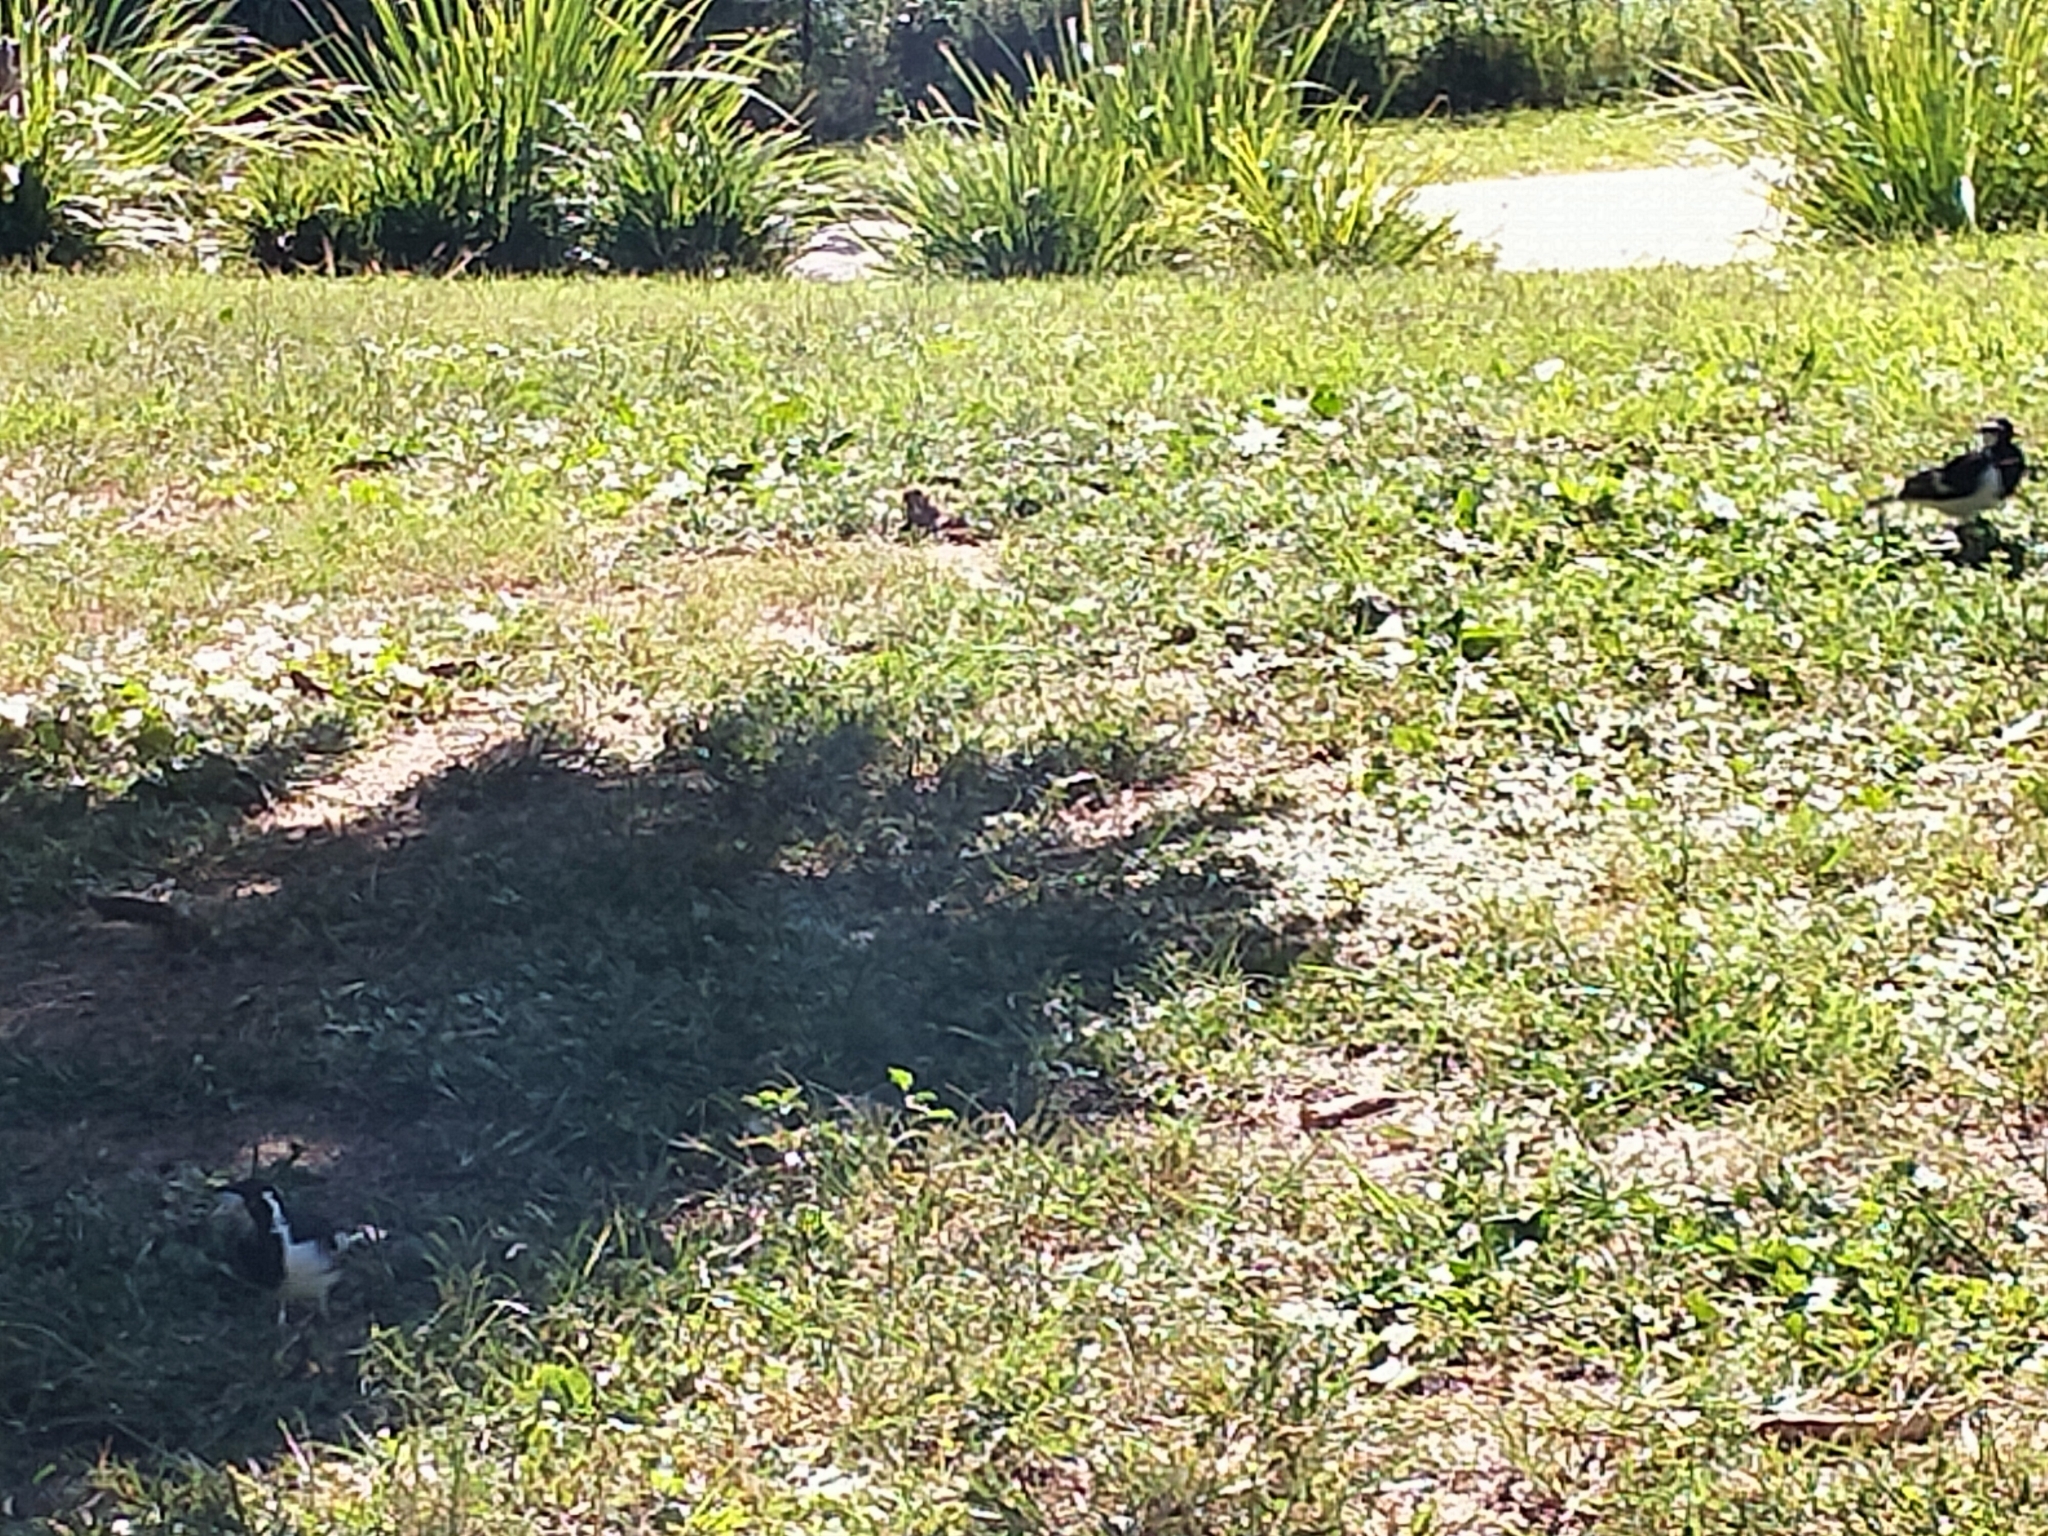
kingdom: Animalia
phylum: Chordata
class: Aves
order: Passeriformes
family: Monarchidae
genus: Grallina
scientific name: Grallina cyanoleuca
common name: Magpie-lark
